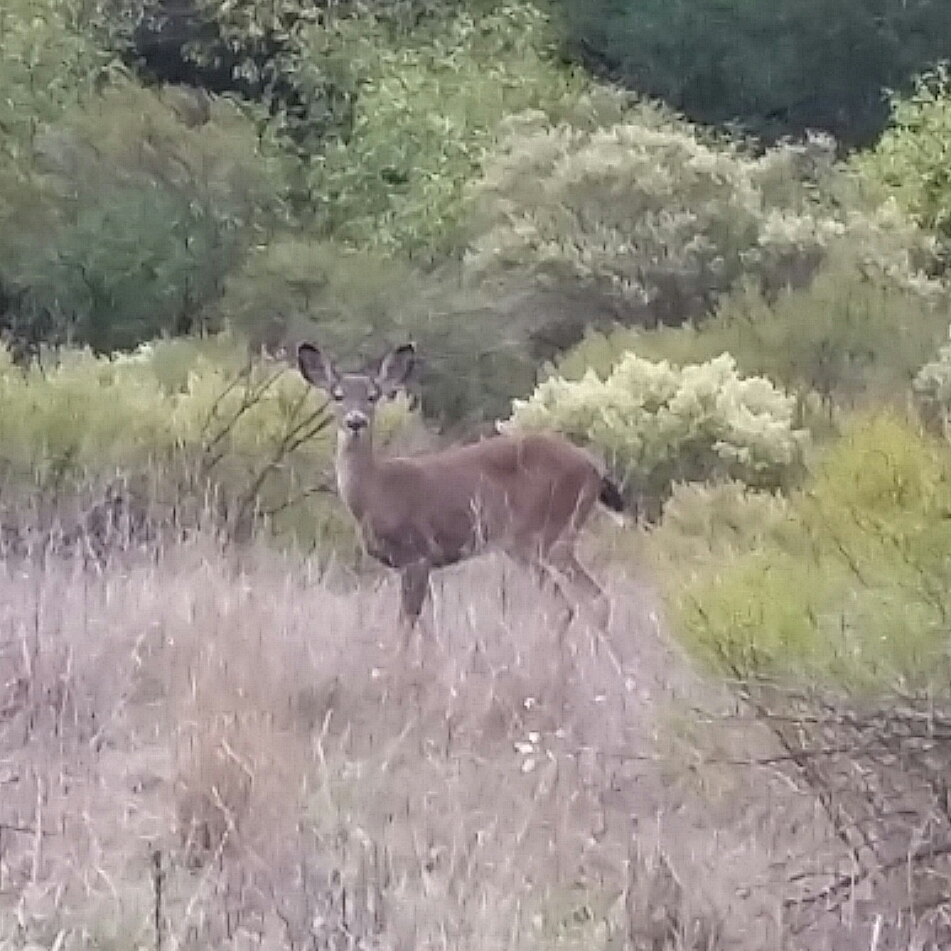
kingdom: Animalia
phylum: Chordata
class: Mammalia
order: Artiodactyla
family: Cervidae
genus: Odocoileus
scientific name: Odocoileus hemionus
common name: Mule deer
